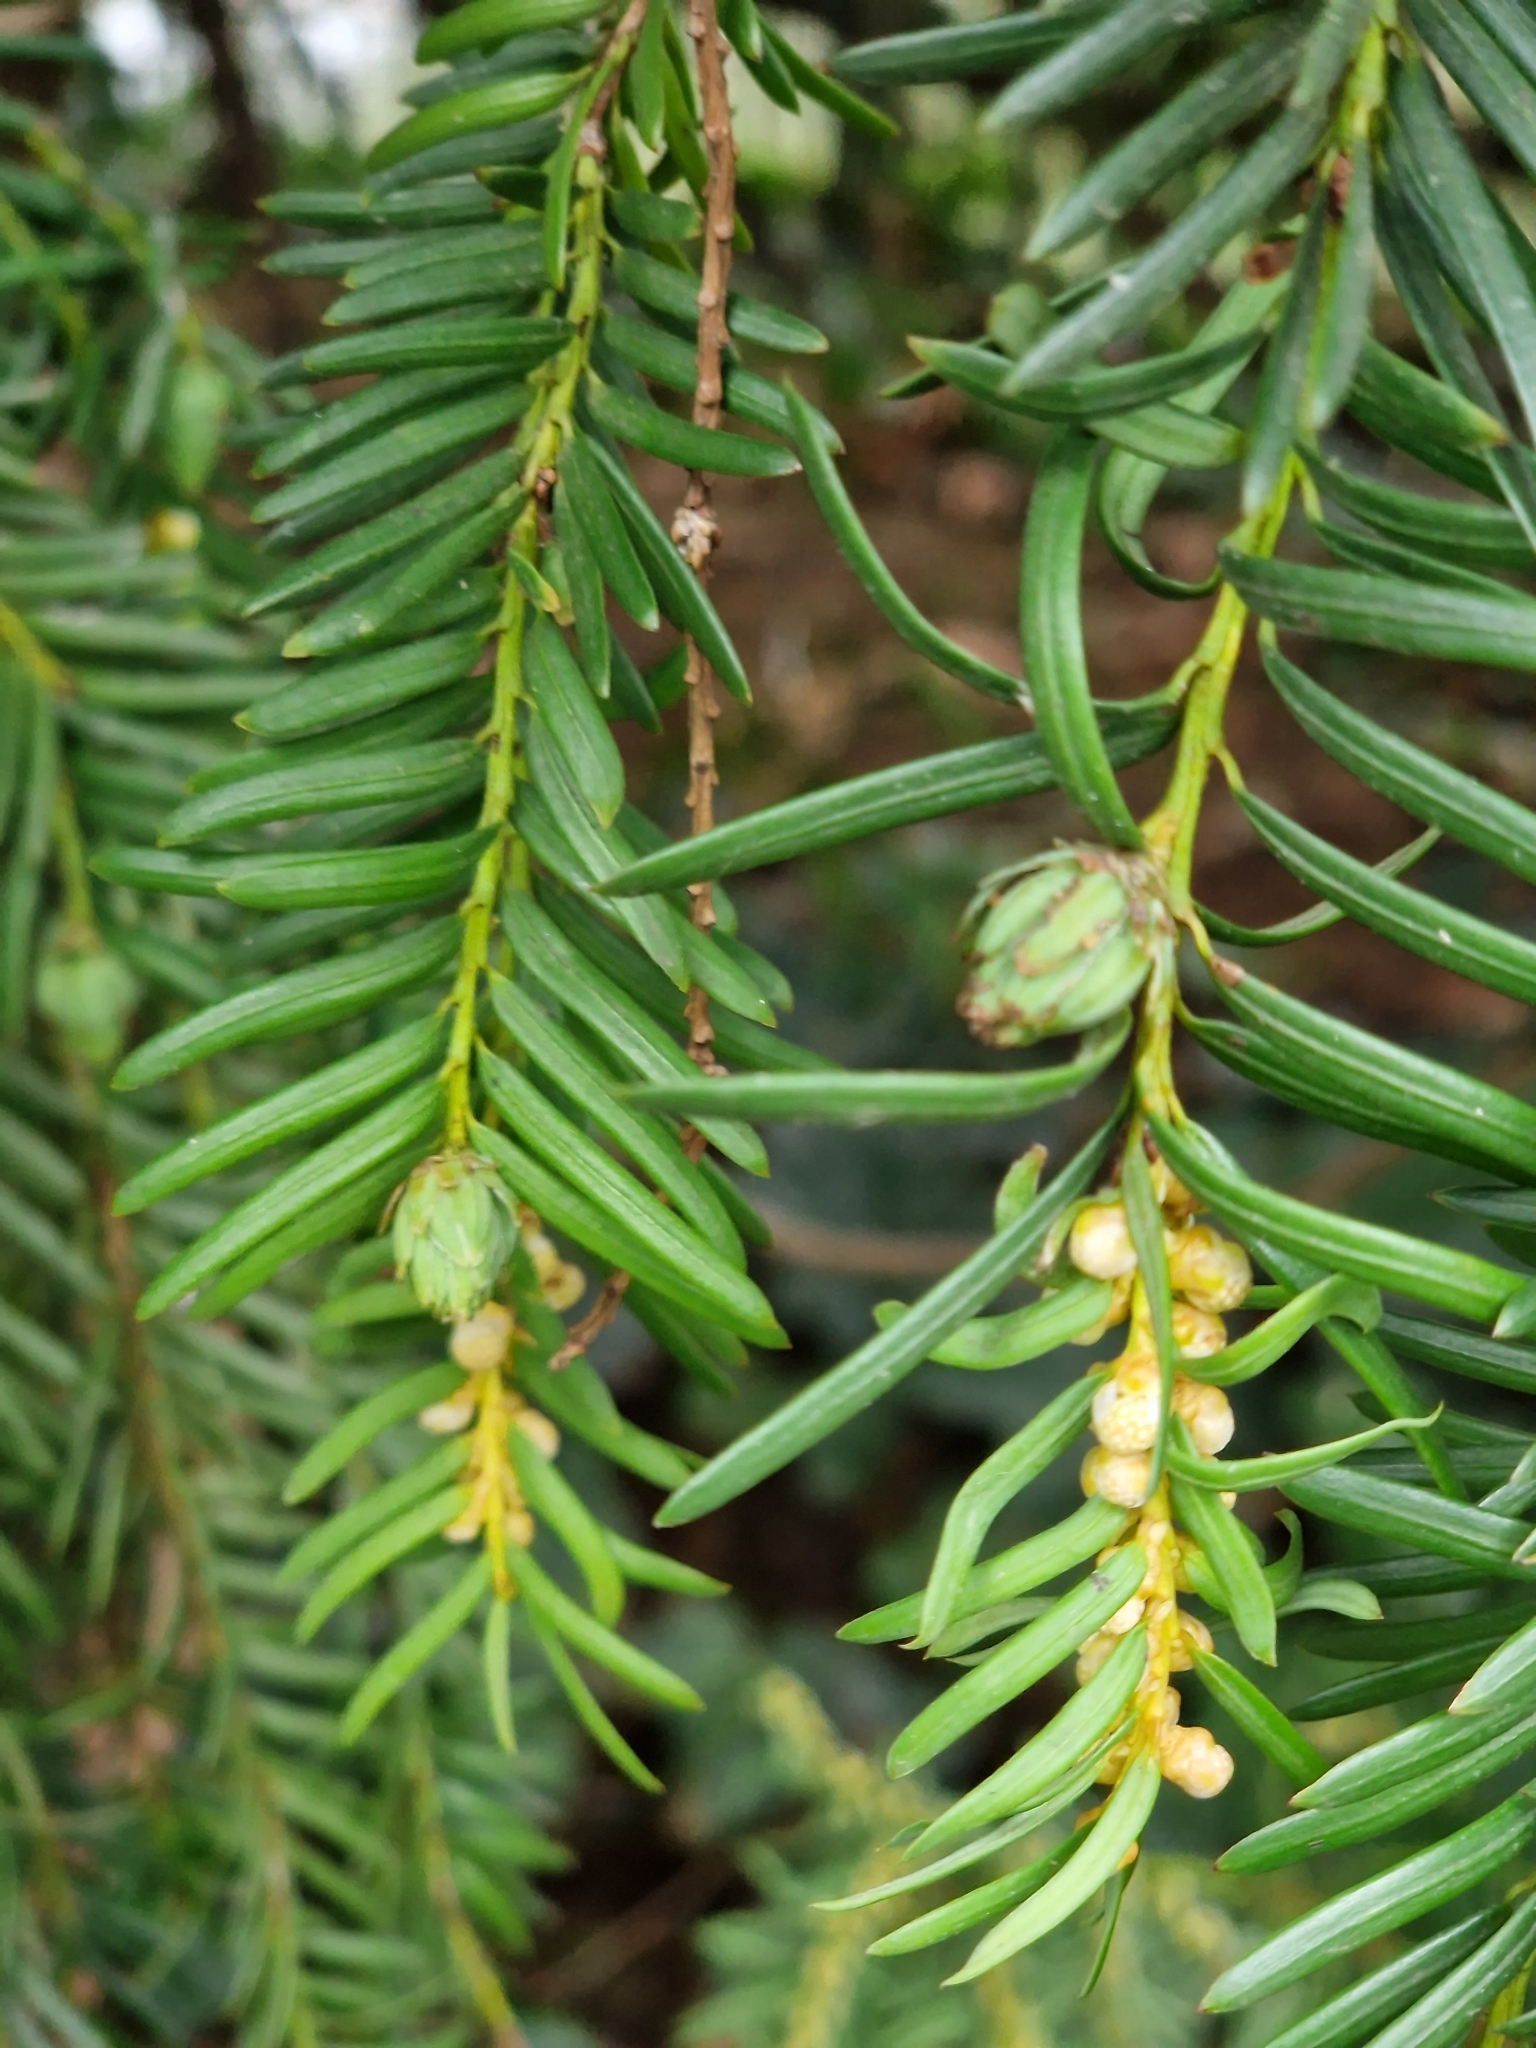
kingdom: Animalia
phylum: Arthropoda
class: Insecta
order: Diptera
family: Cecidomyiidae
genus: Taxomyia
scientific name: Taxomyia taxi
